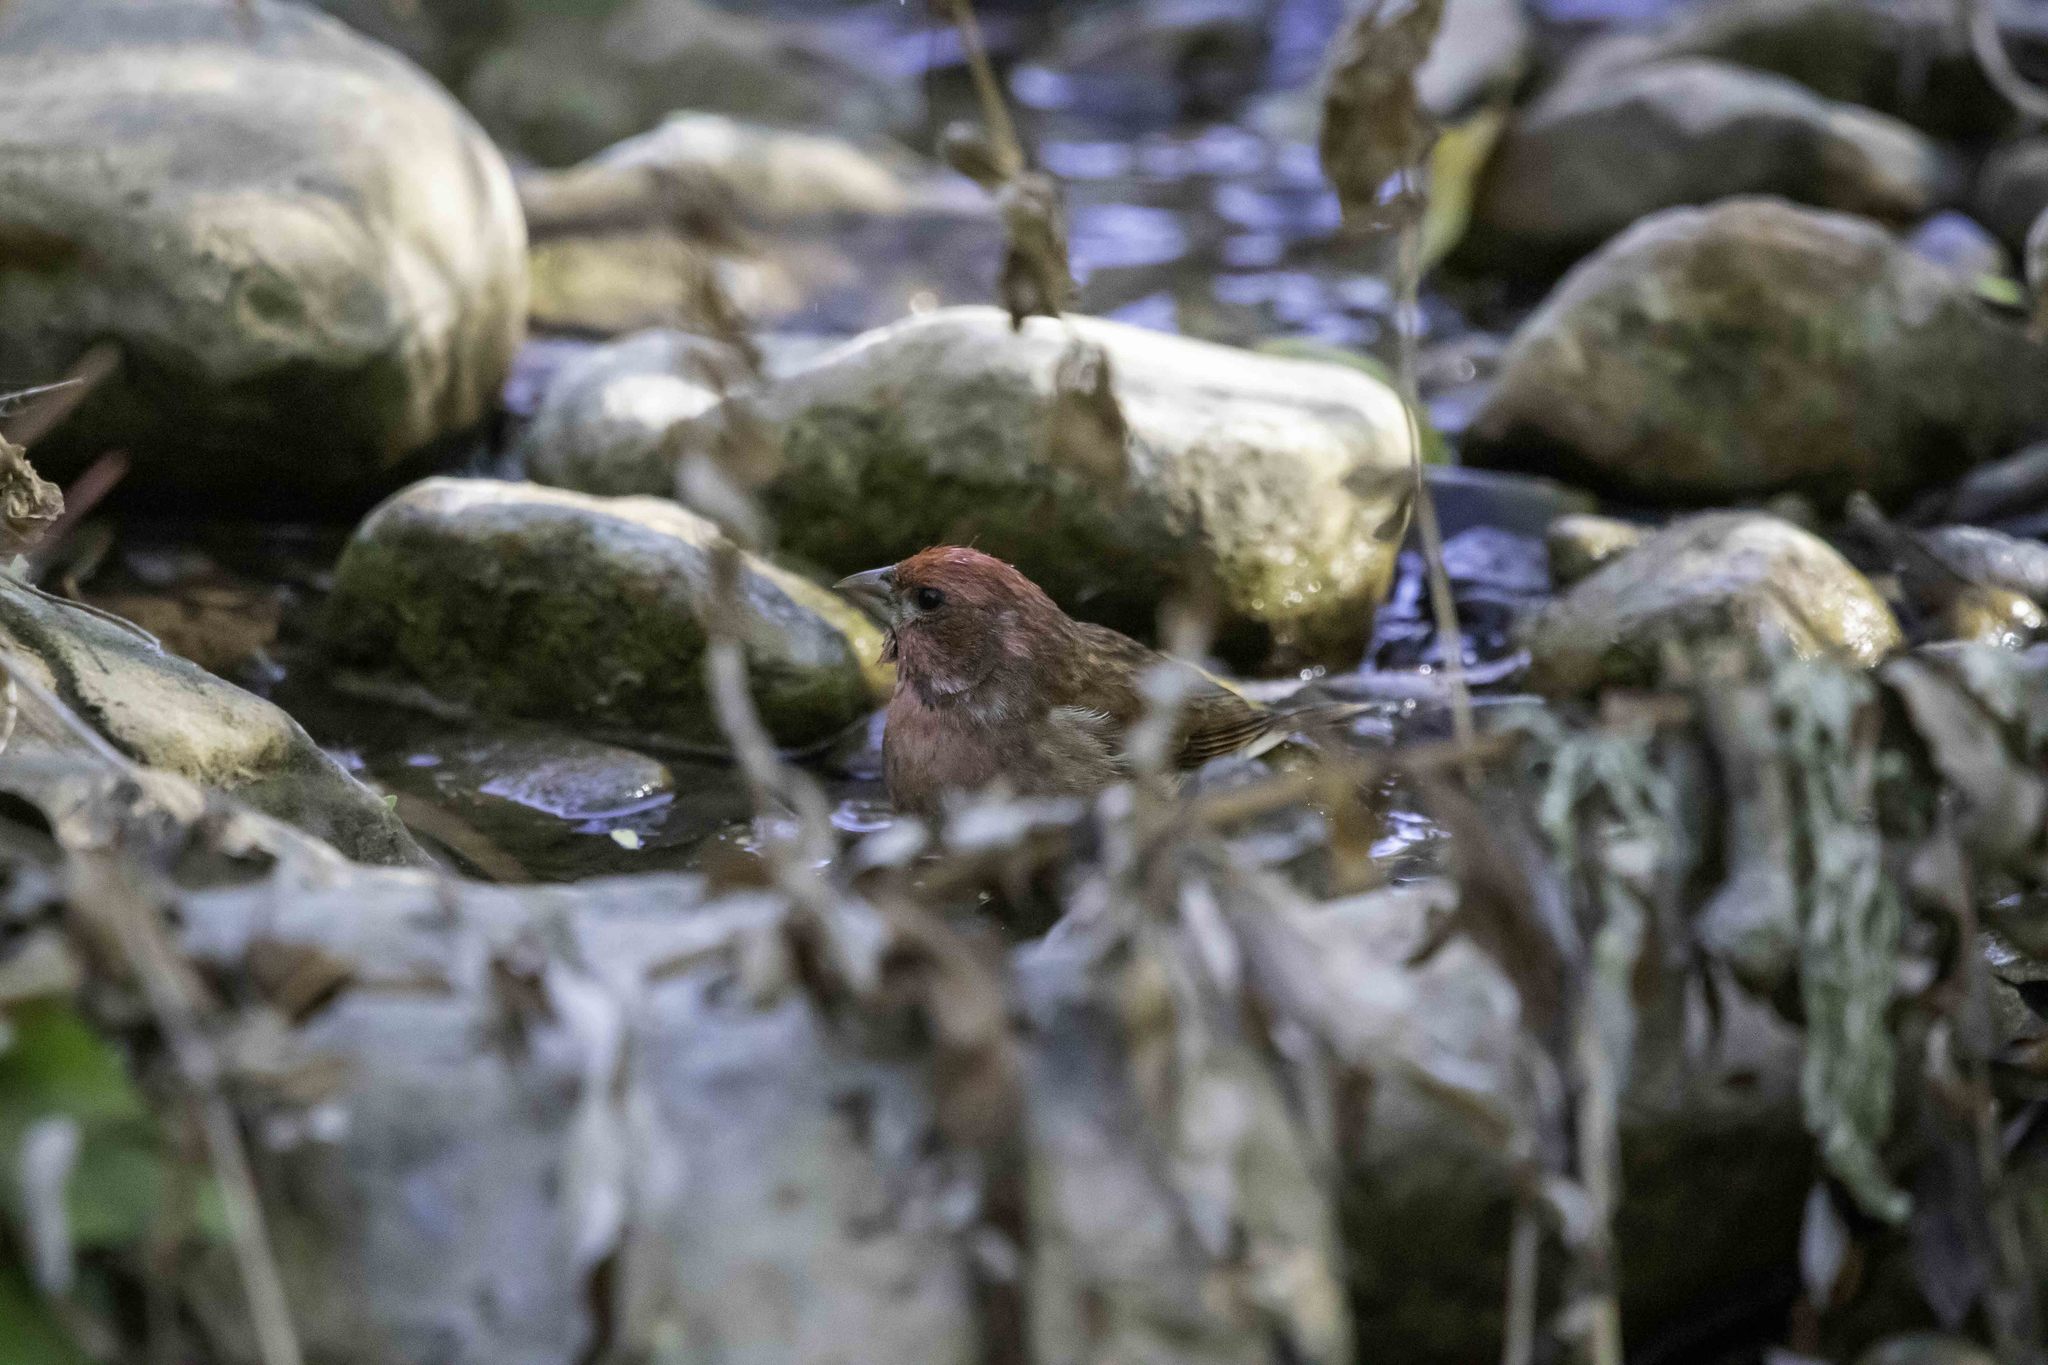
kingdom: Animalia
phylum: Chordata
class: Aves
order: Passeriformes
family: Fringillidae
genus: Haemorhous
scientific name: Haemorhous purpureus
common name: Purple finch
